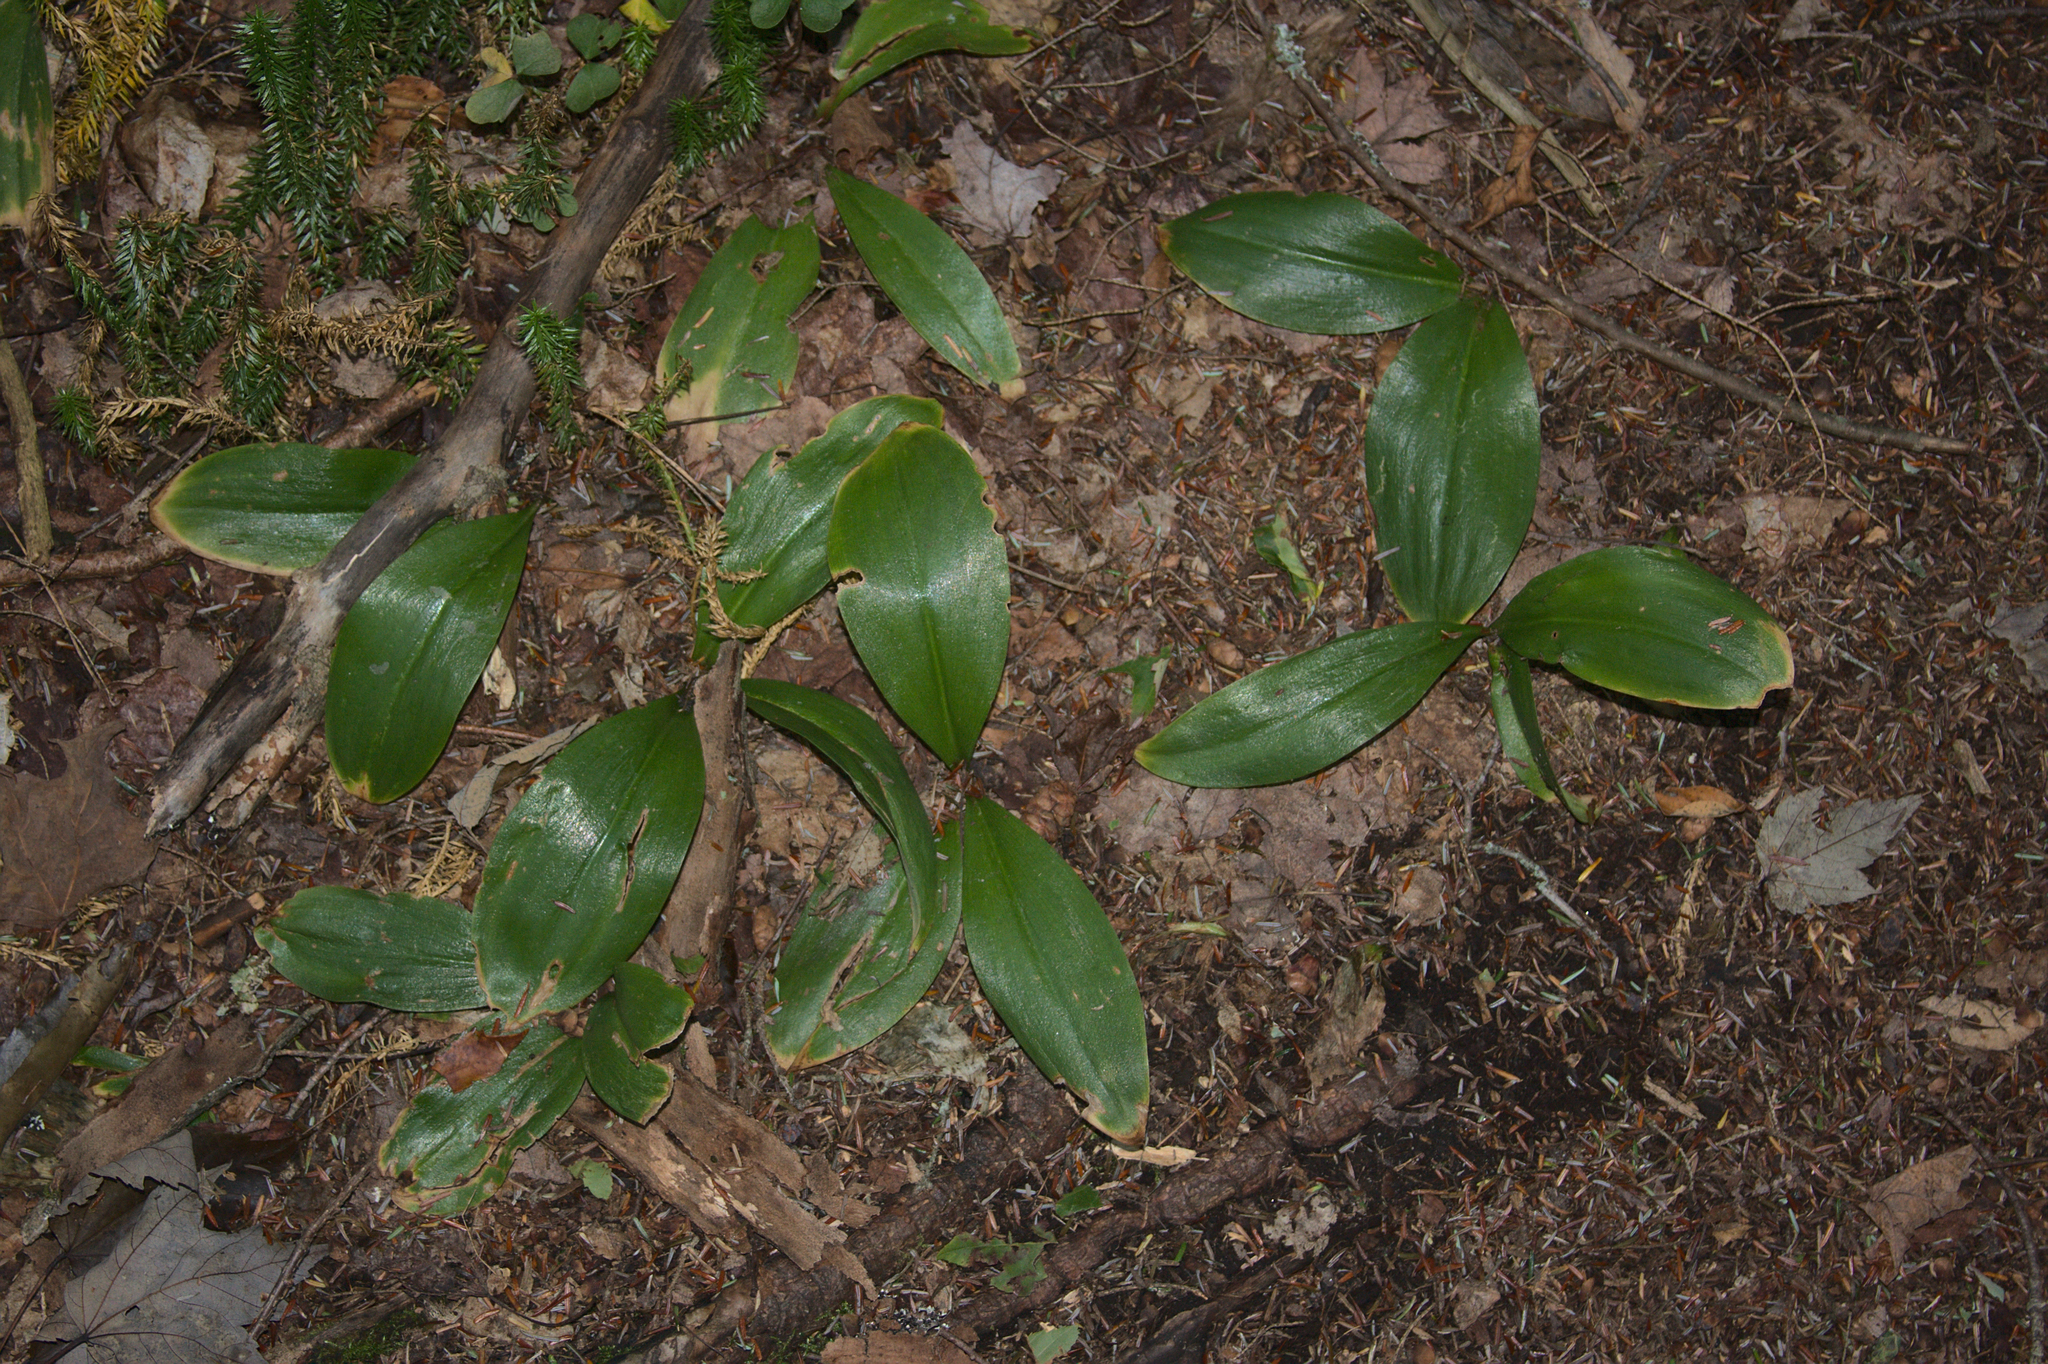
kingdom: Plantae
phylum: Tracheophyta
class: Liliopsida
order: Liliales
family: Liliaceae
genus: Clintonia
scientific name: Clintonia borealis
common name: Yellow clintonia
